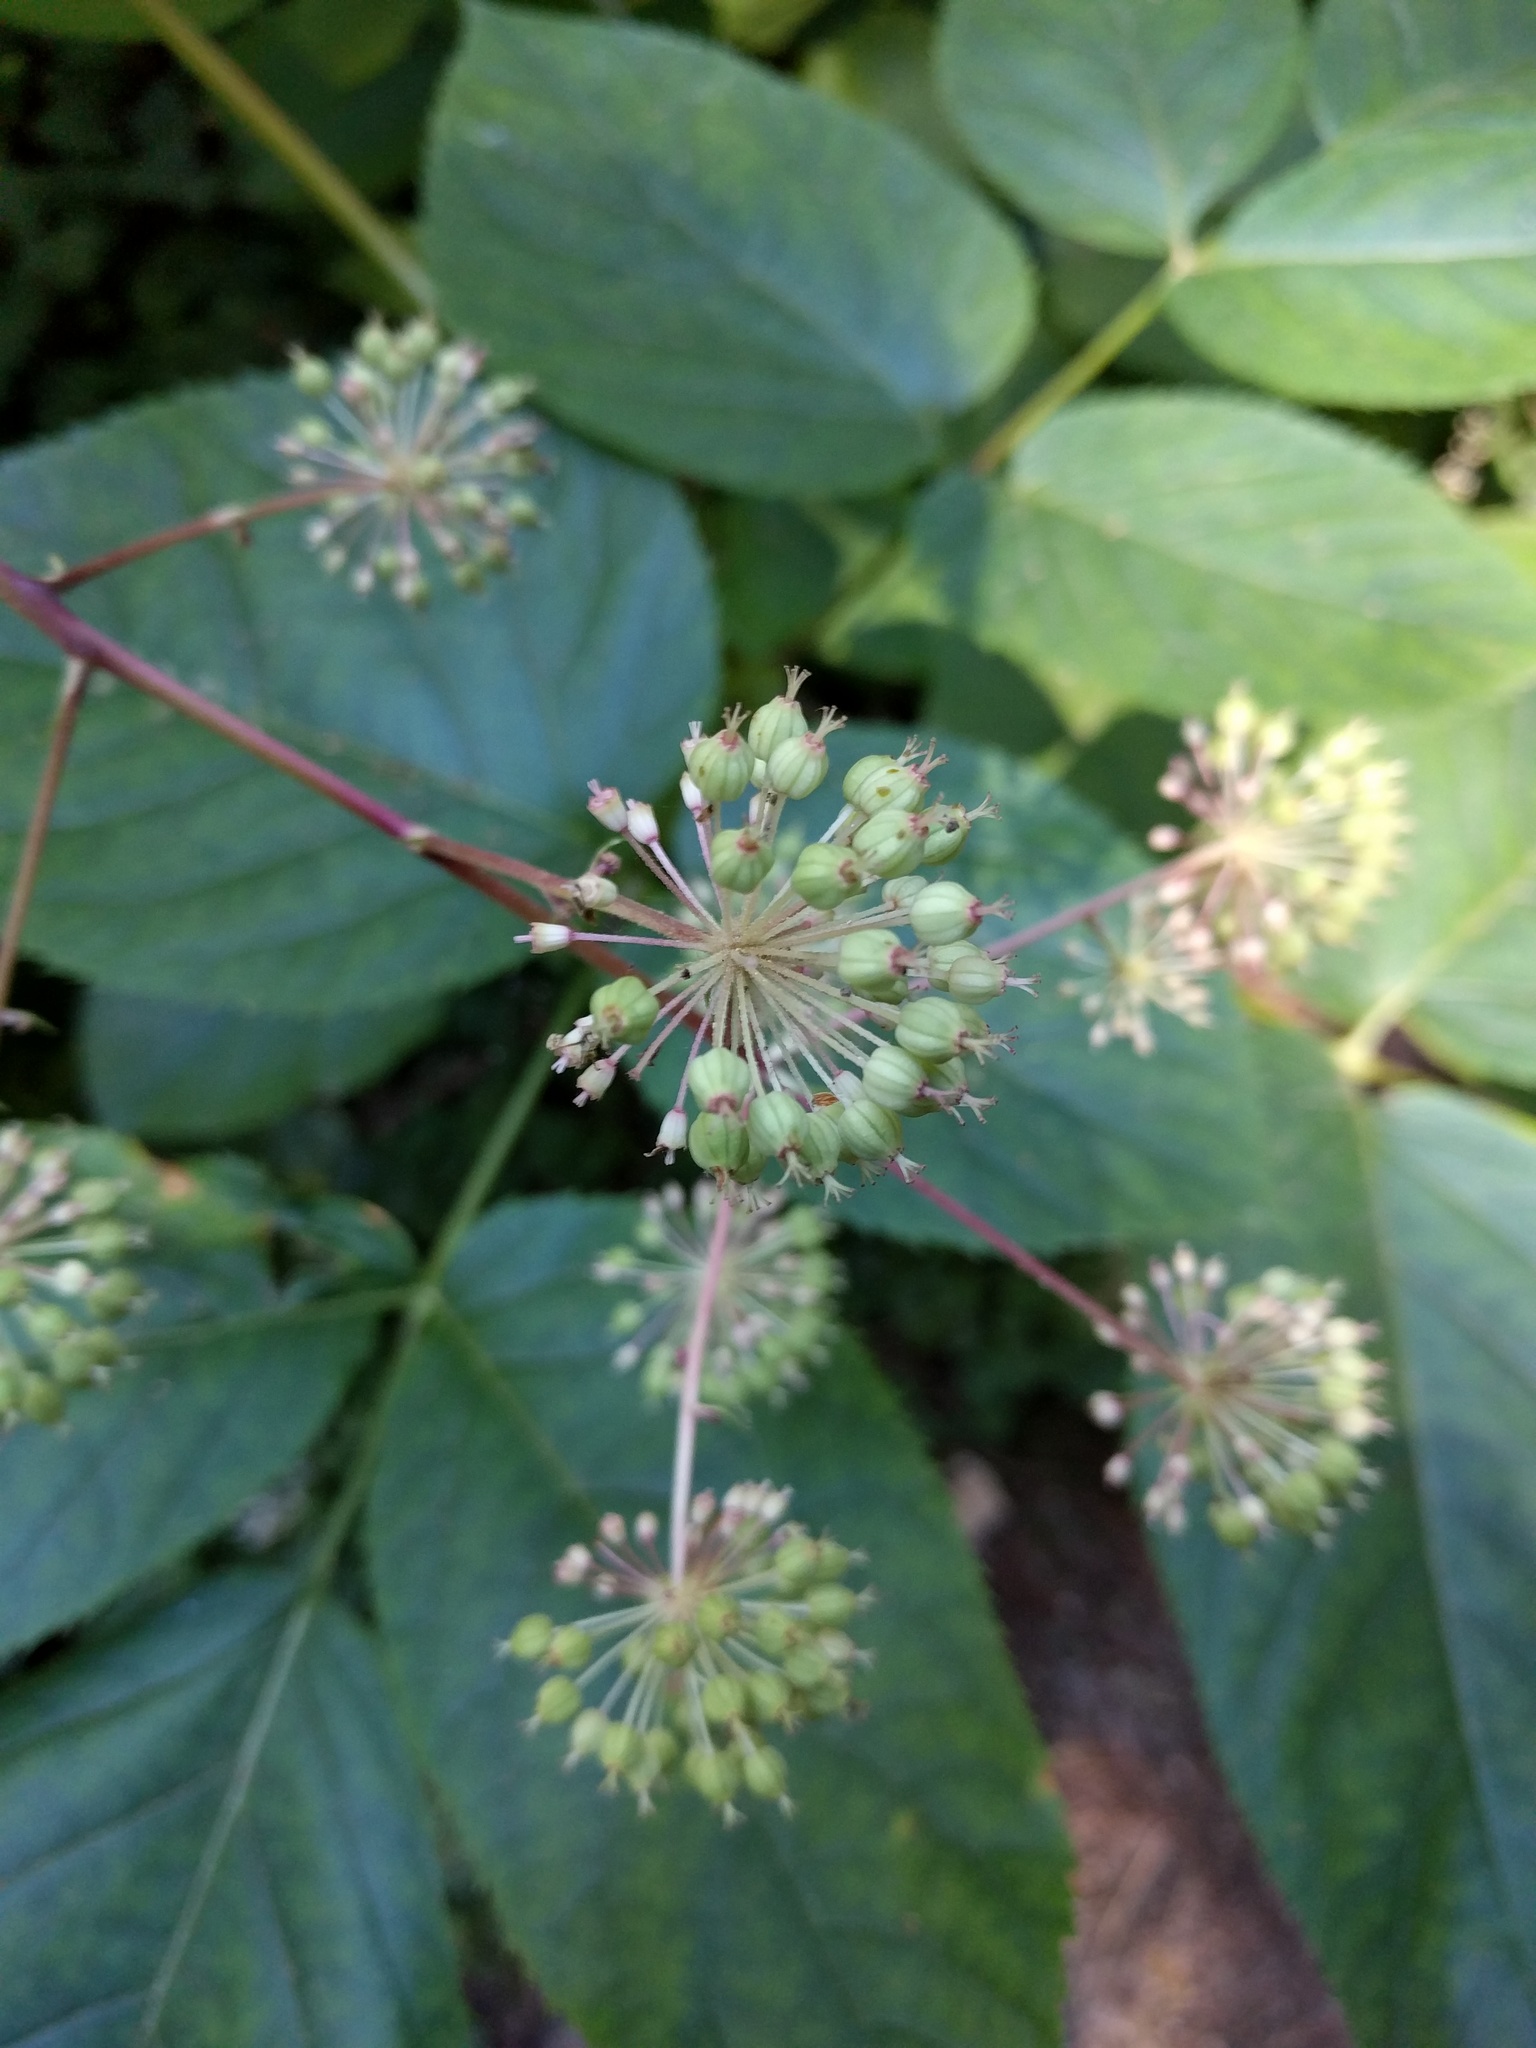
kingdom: Plantae
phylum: Tracheophyta
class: Magnoliopsida
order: Apiales
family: Araliaceae
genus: Aralia
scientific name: Aralia californica
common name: California-ginseng
